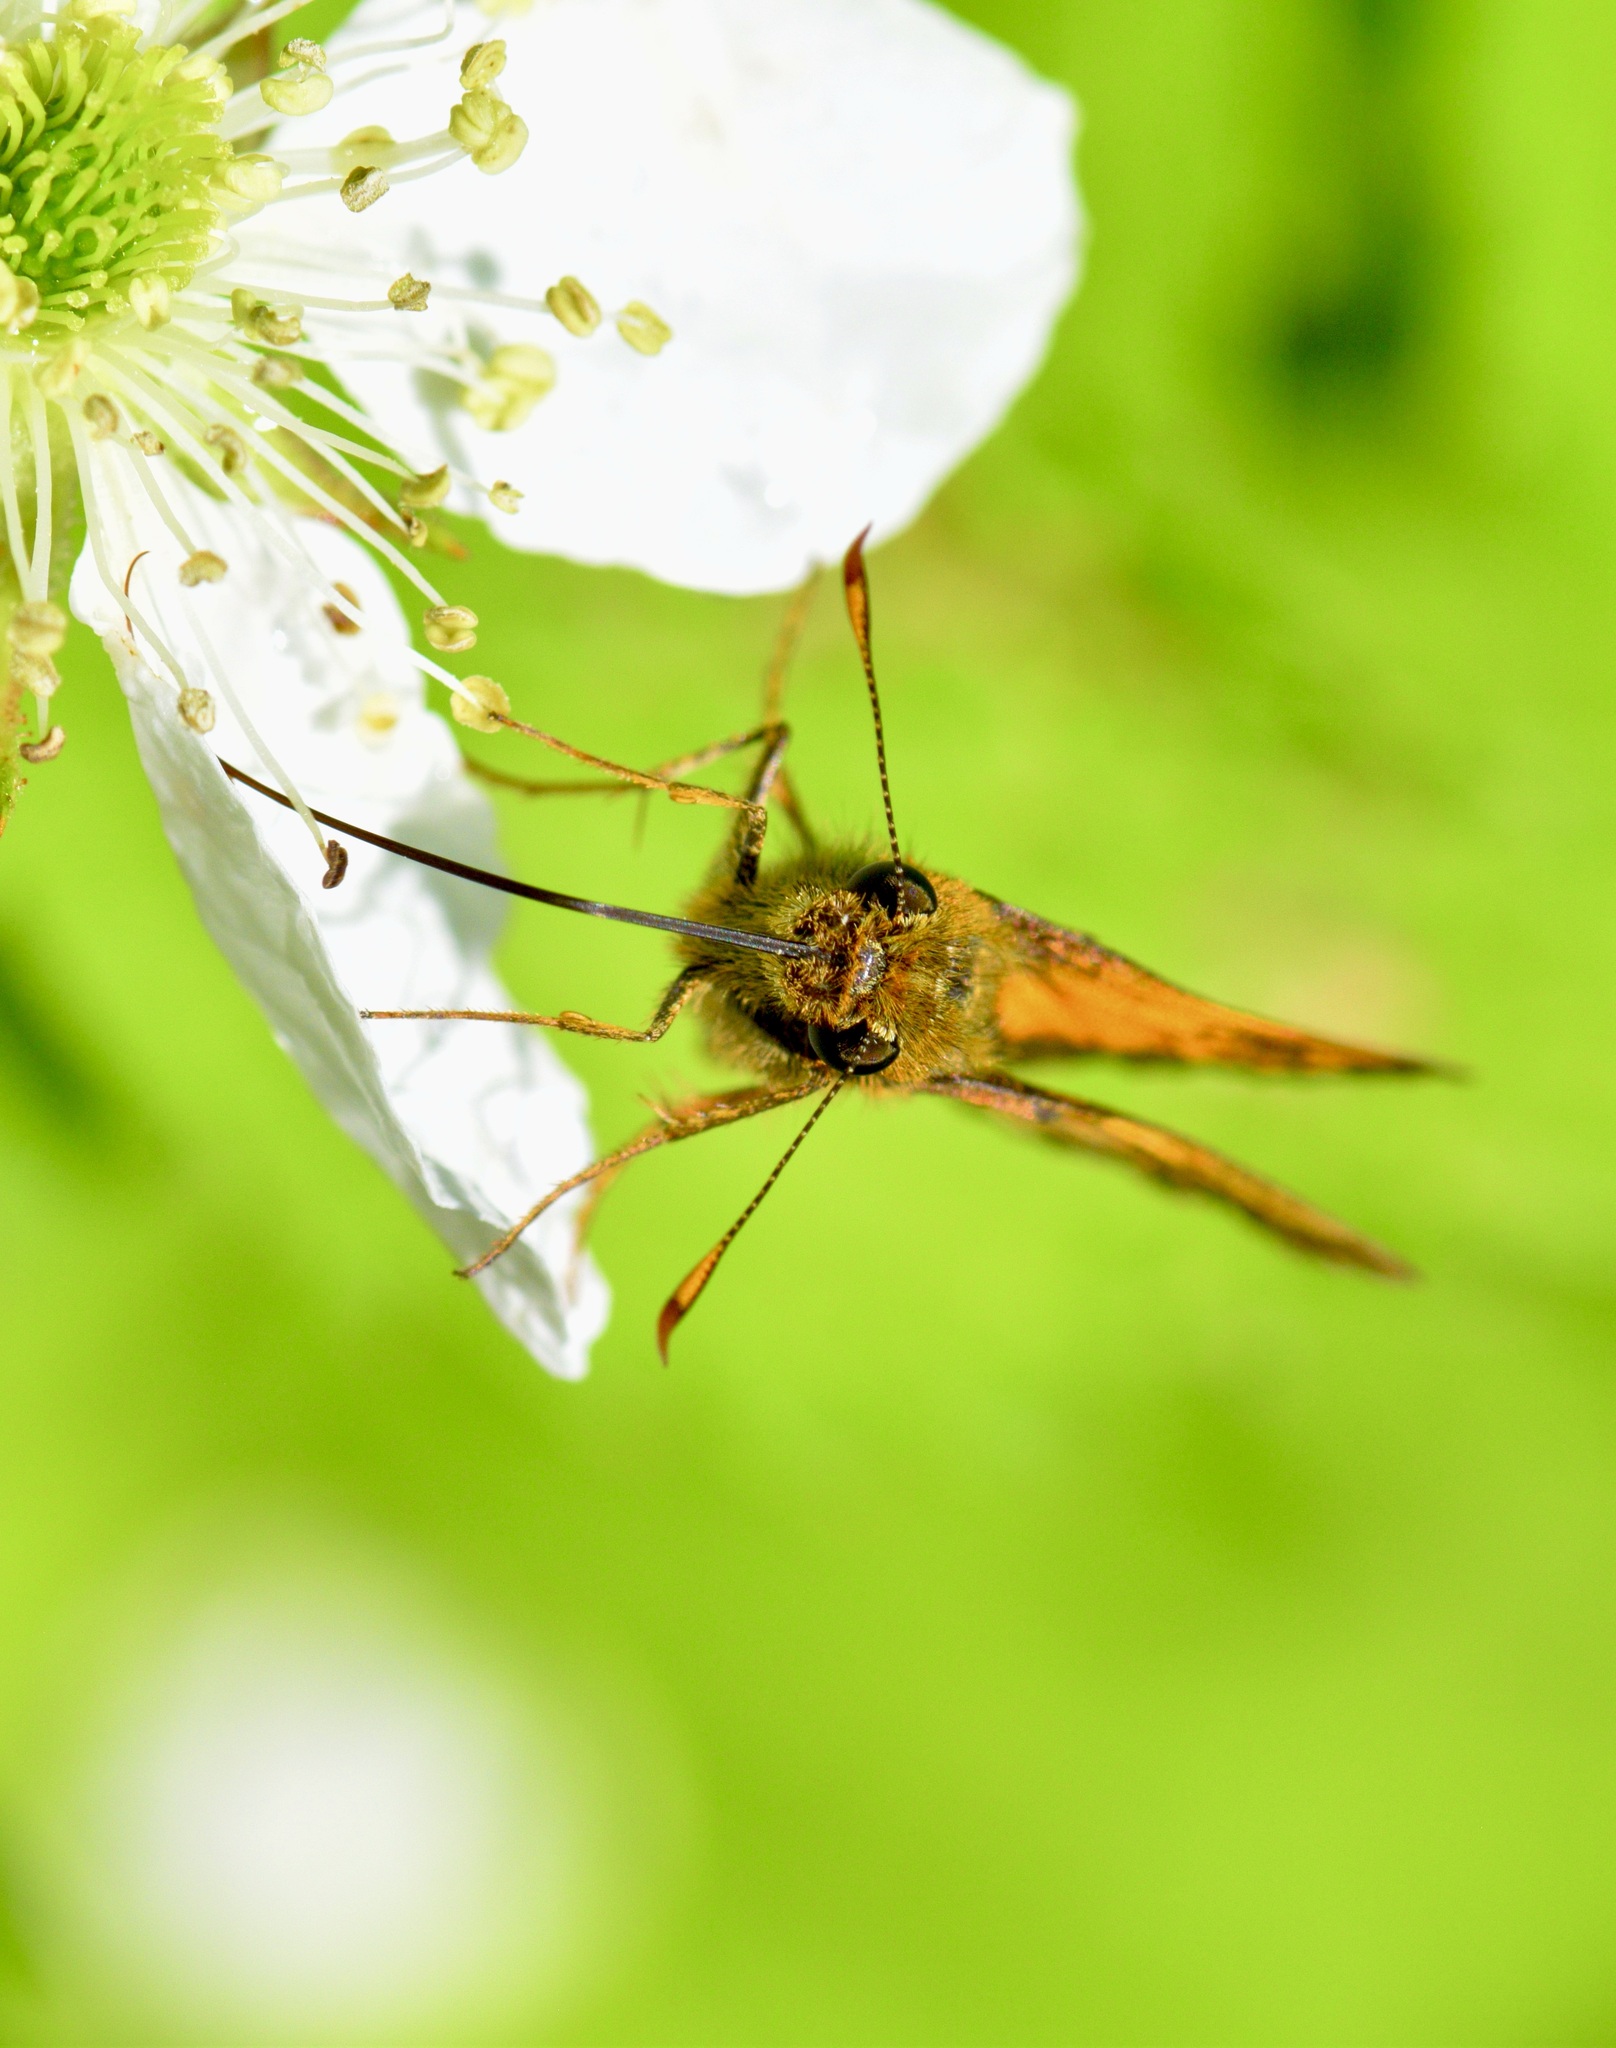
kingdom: Animalia
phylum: Arthropoda
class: Insecta
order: Lepidoptera
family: Hesperiidae
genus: Lon
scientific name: Lon hobomok
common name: Hobomok skipper
